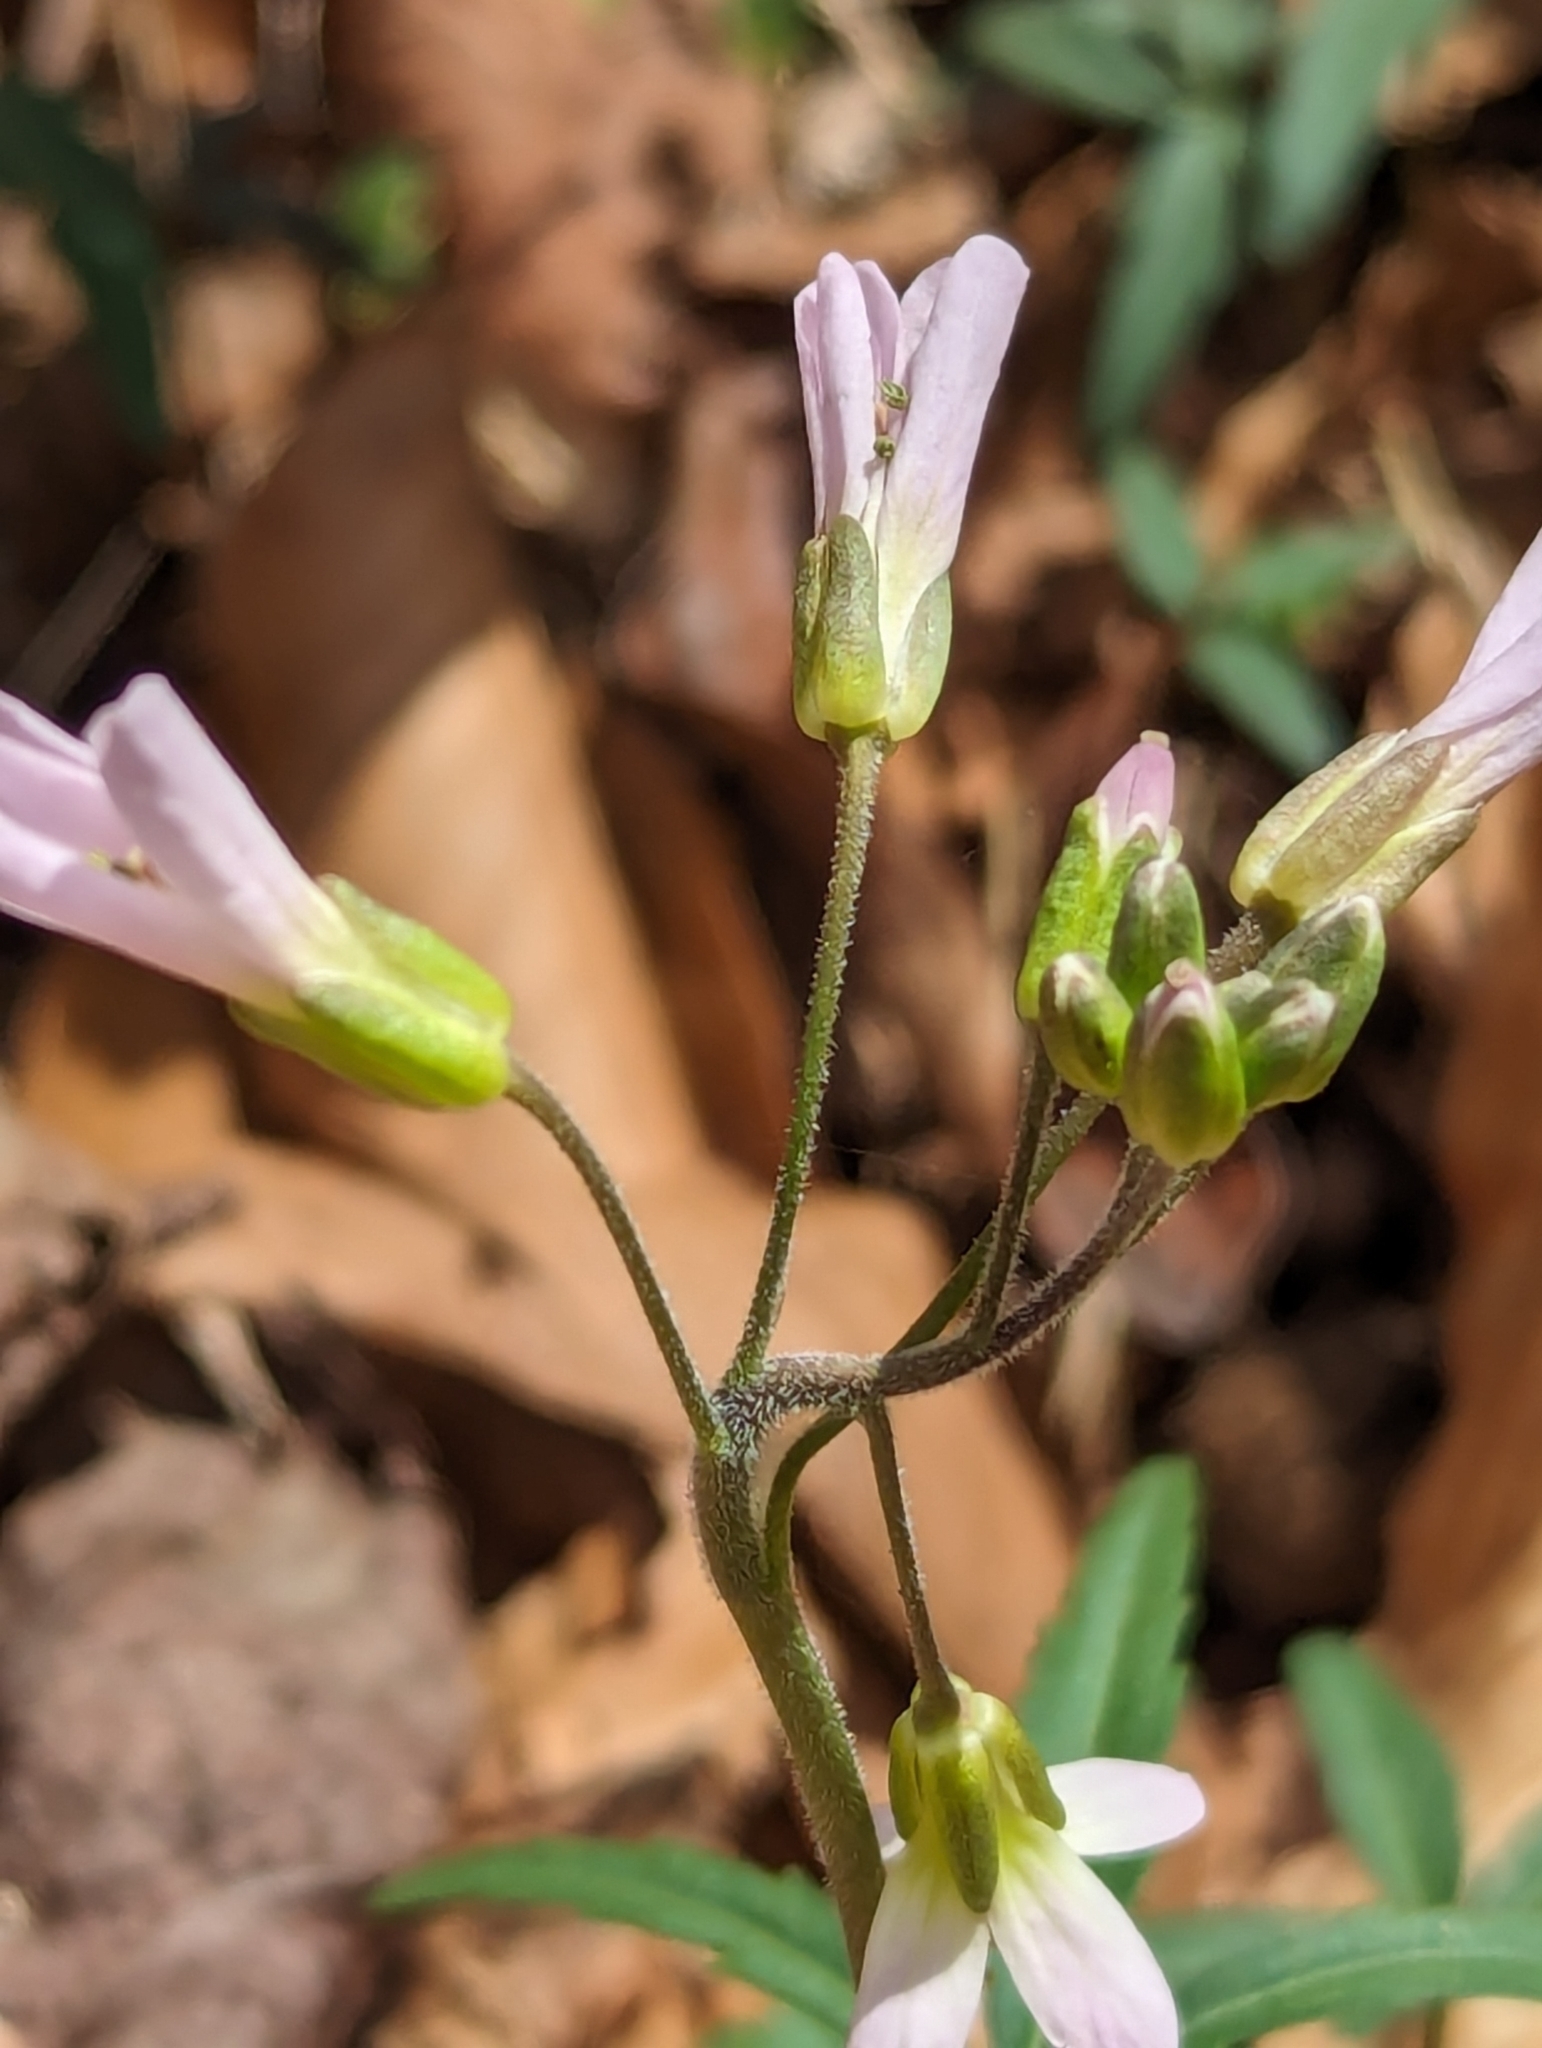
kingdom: Plantae
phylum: Tracheophyta
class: Magnoliopsida
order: Brassicales
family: Brassicaceae
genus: Cardamine
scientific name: Cardamine concatenata
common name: Cut-leaf toothcup
